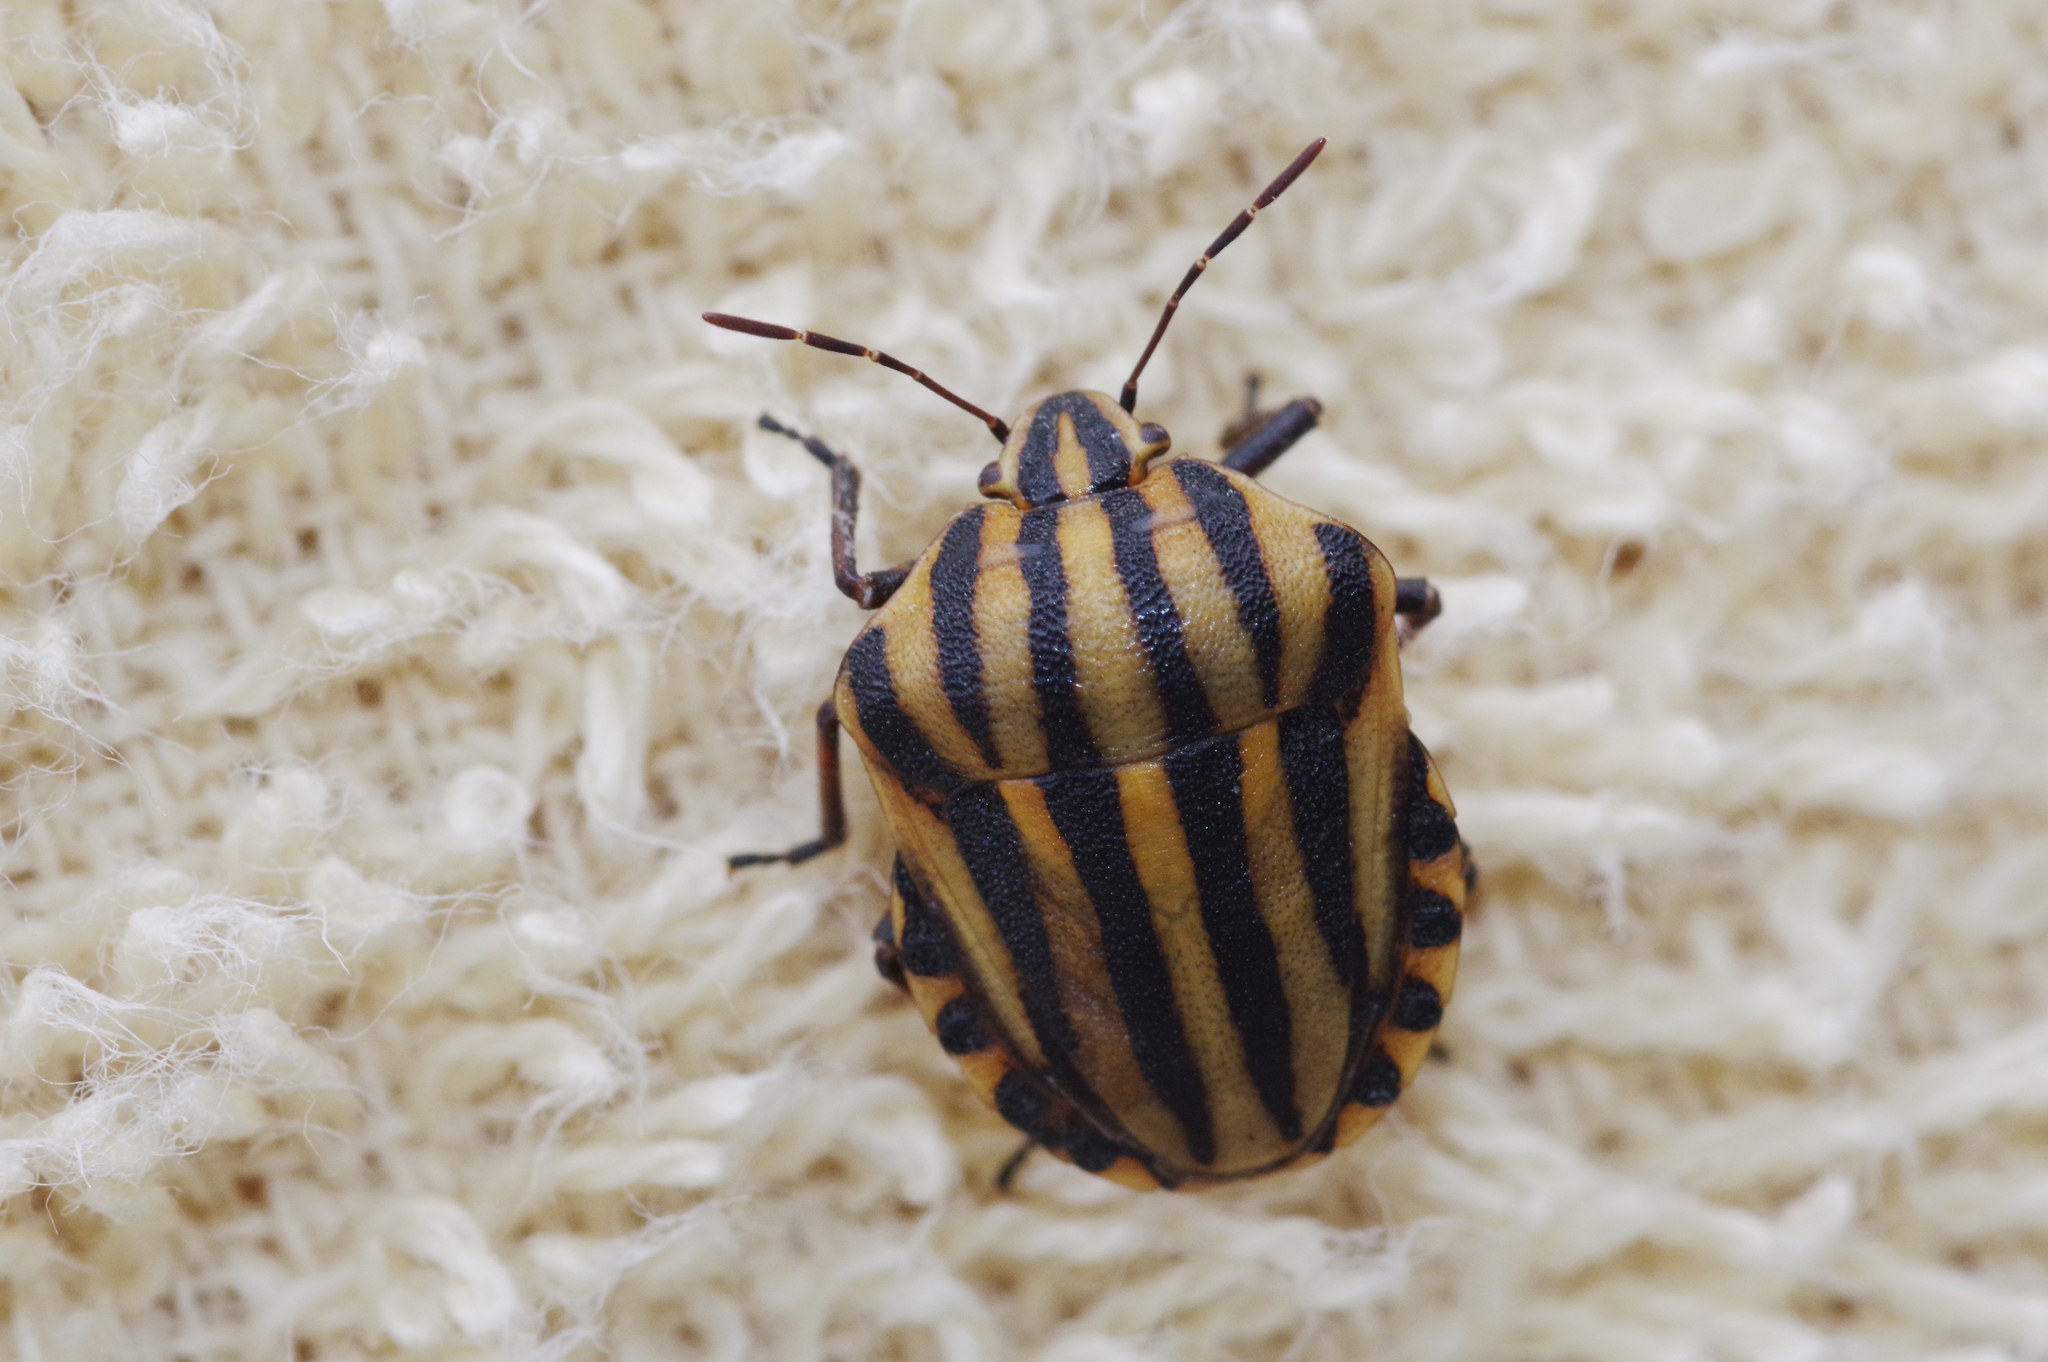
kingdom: Animalia
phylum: Arthropoda
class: Insecta
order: Hemiptera
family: Pentatomidae
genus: Graphosoma
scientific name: Graphosoma rubrolineatum
